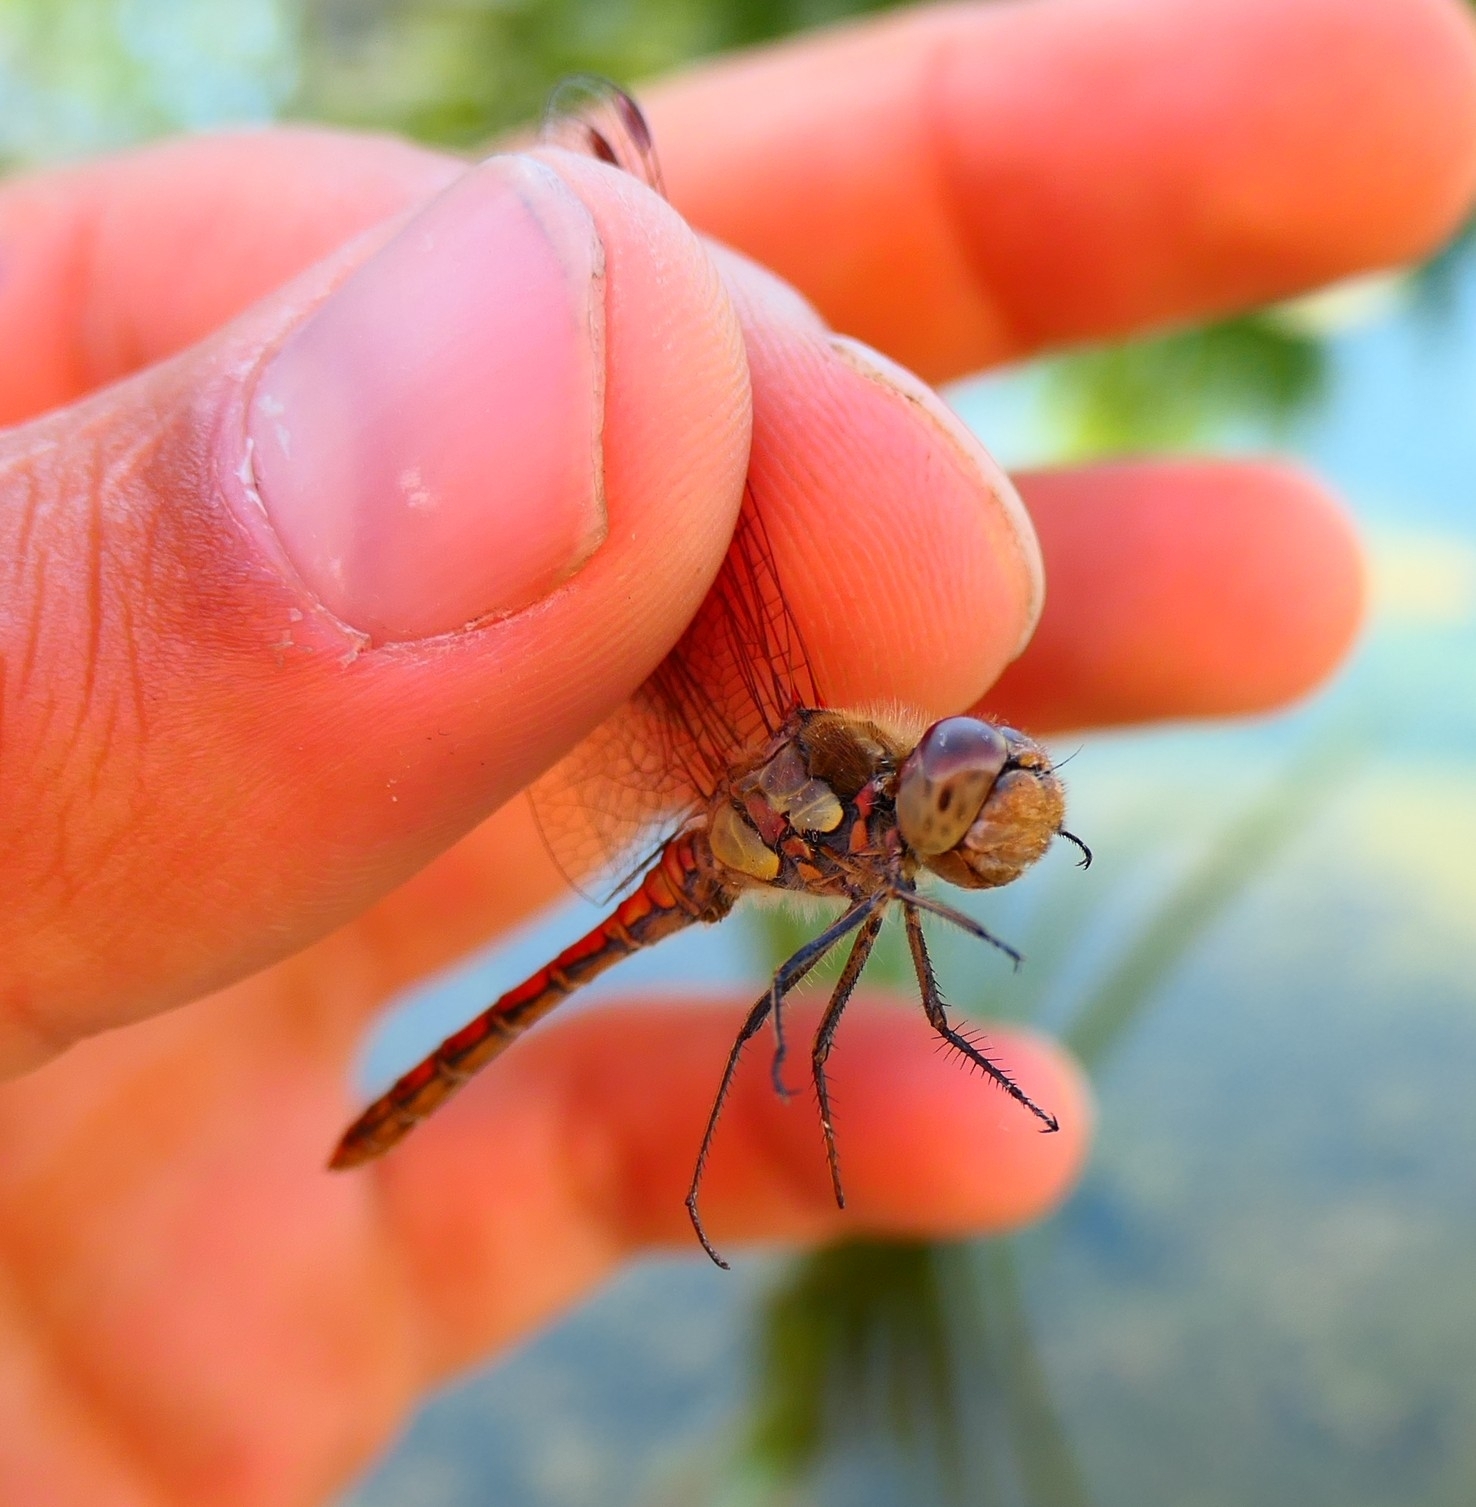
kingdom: Animalia
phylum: Arthropoda
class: Insecta
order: Odonata
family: Libellulidae
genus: Sympetrum
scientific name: Sympetrum striolatum
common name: Common darter
